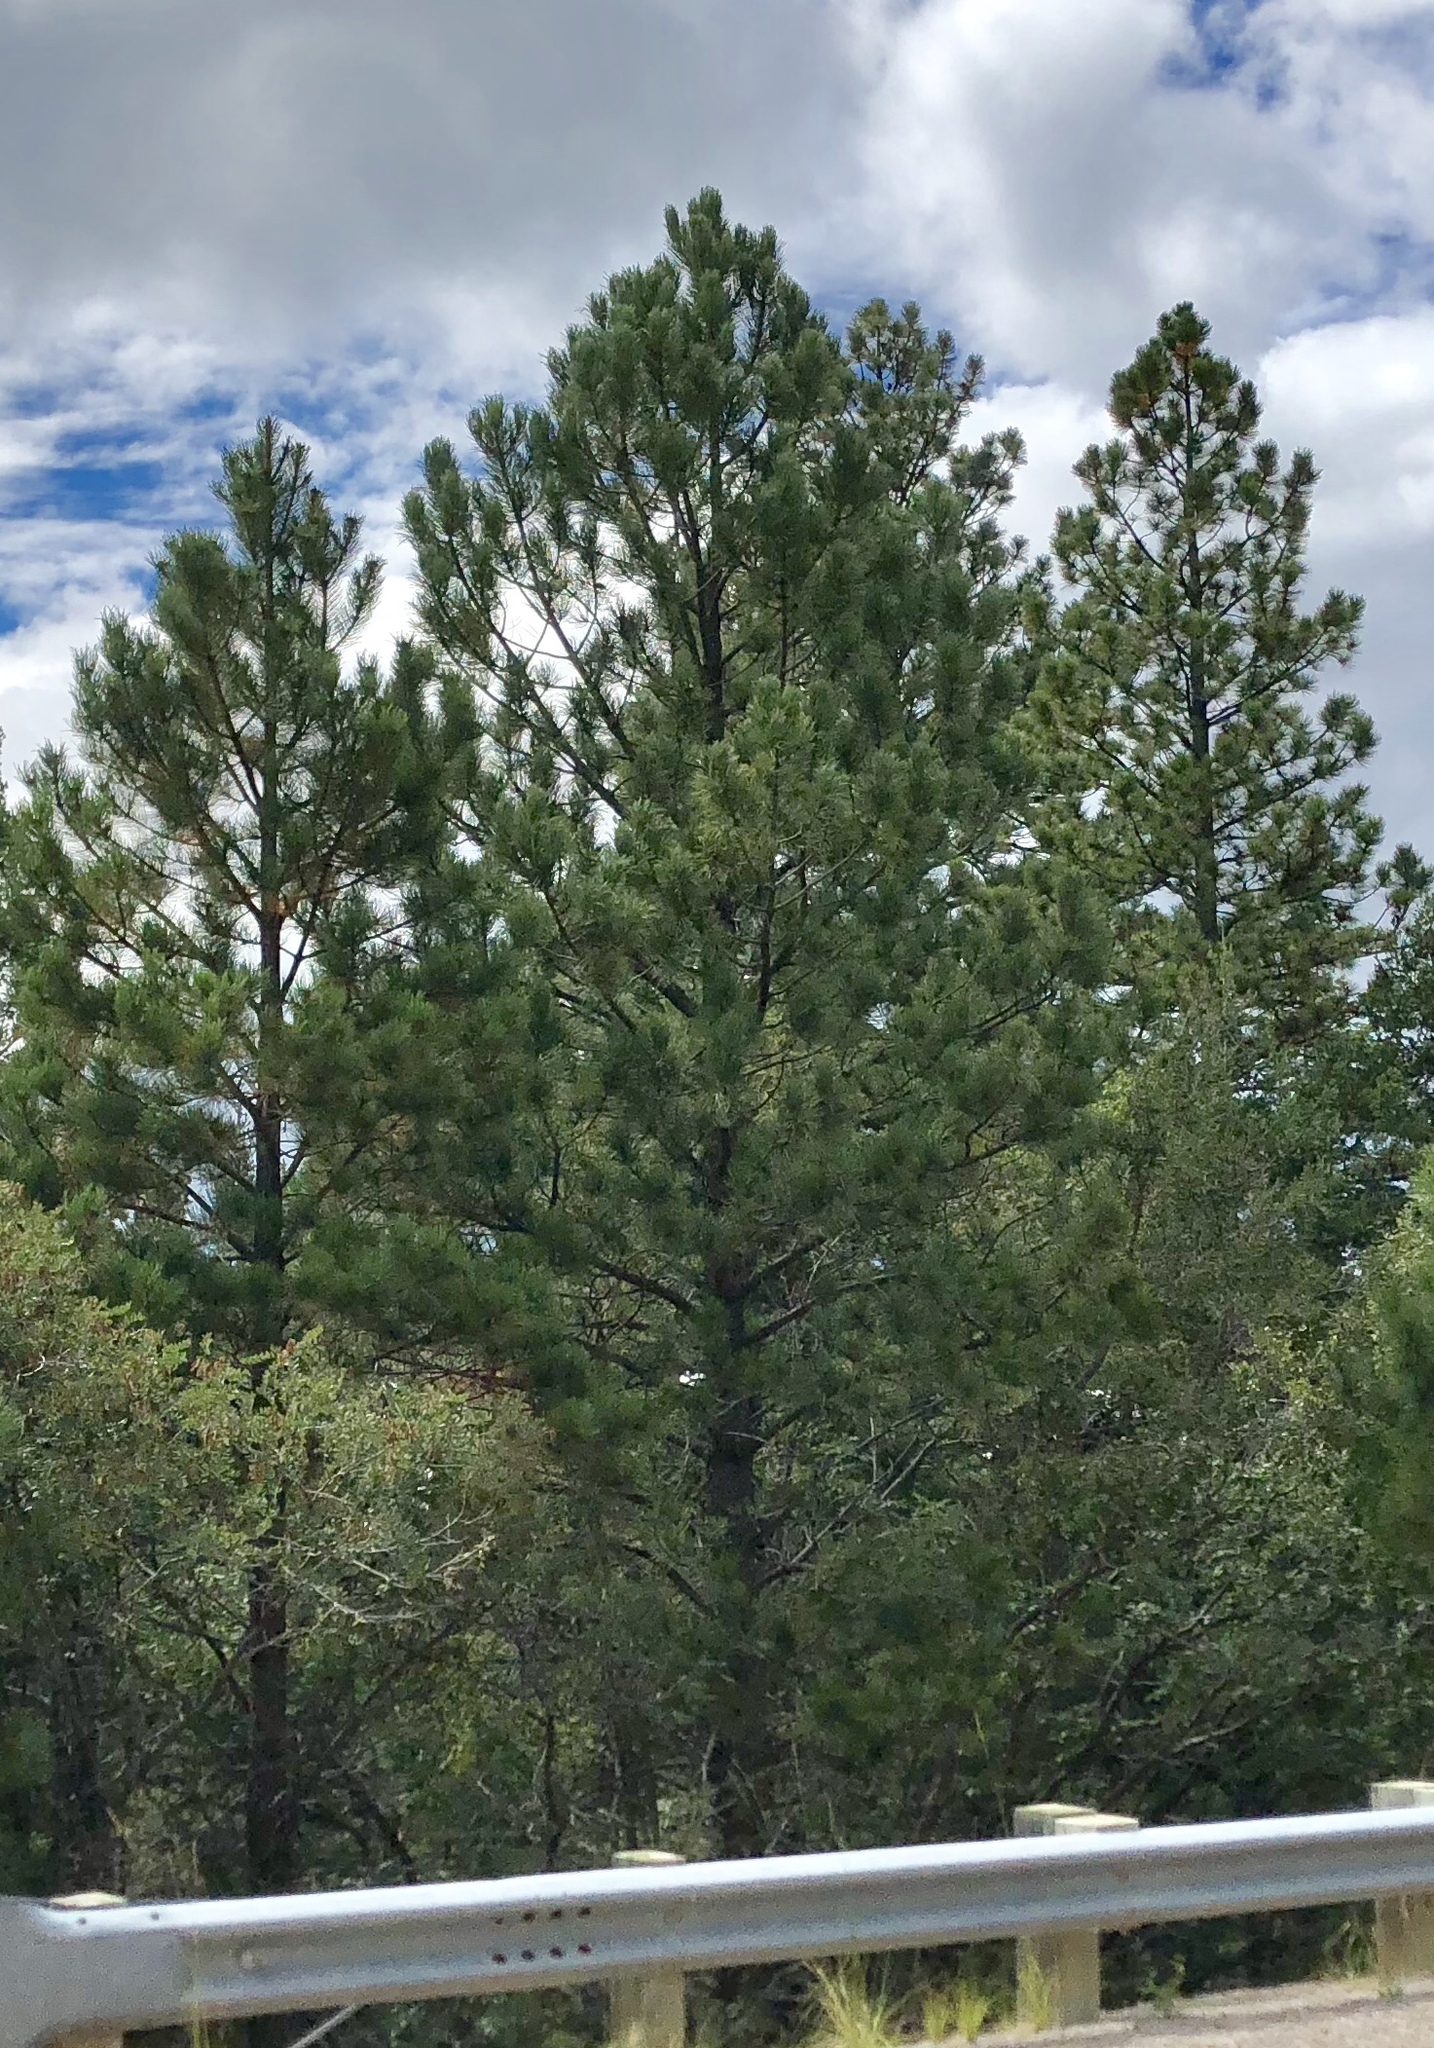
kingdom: Plantae
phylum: Tracheophyta
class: Pinopsida
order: Pinales
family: Pinaceae
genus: Pinus
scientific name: Pinus ponderosa
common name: Western yellow-pine
